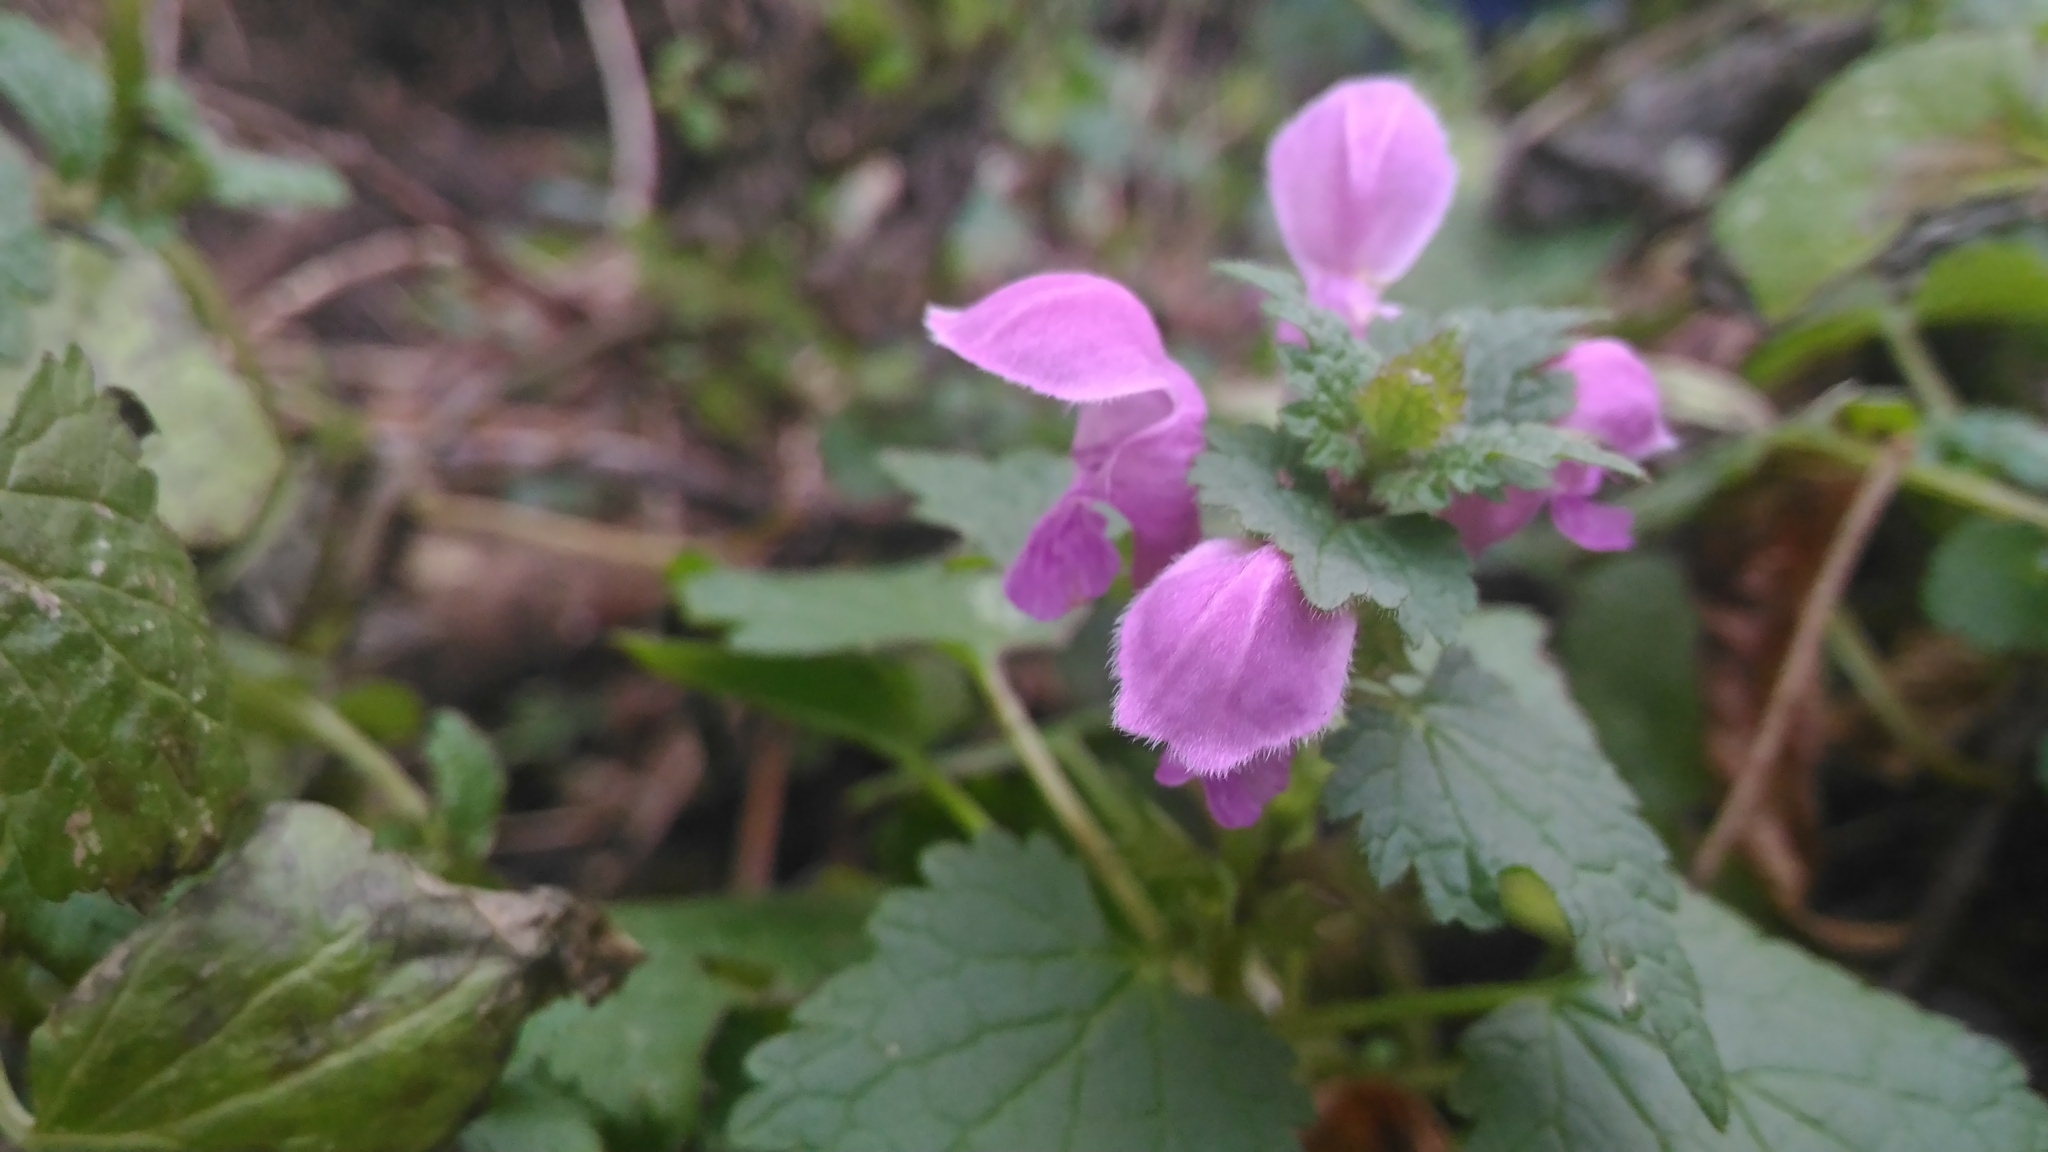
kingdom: Plantae
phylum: Tracheophyta
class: Magnoliopsida
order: Lamiales
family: Lamiaceae
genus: Lamium
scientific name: Lamium maculatum
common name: Spotted dead-nettle
